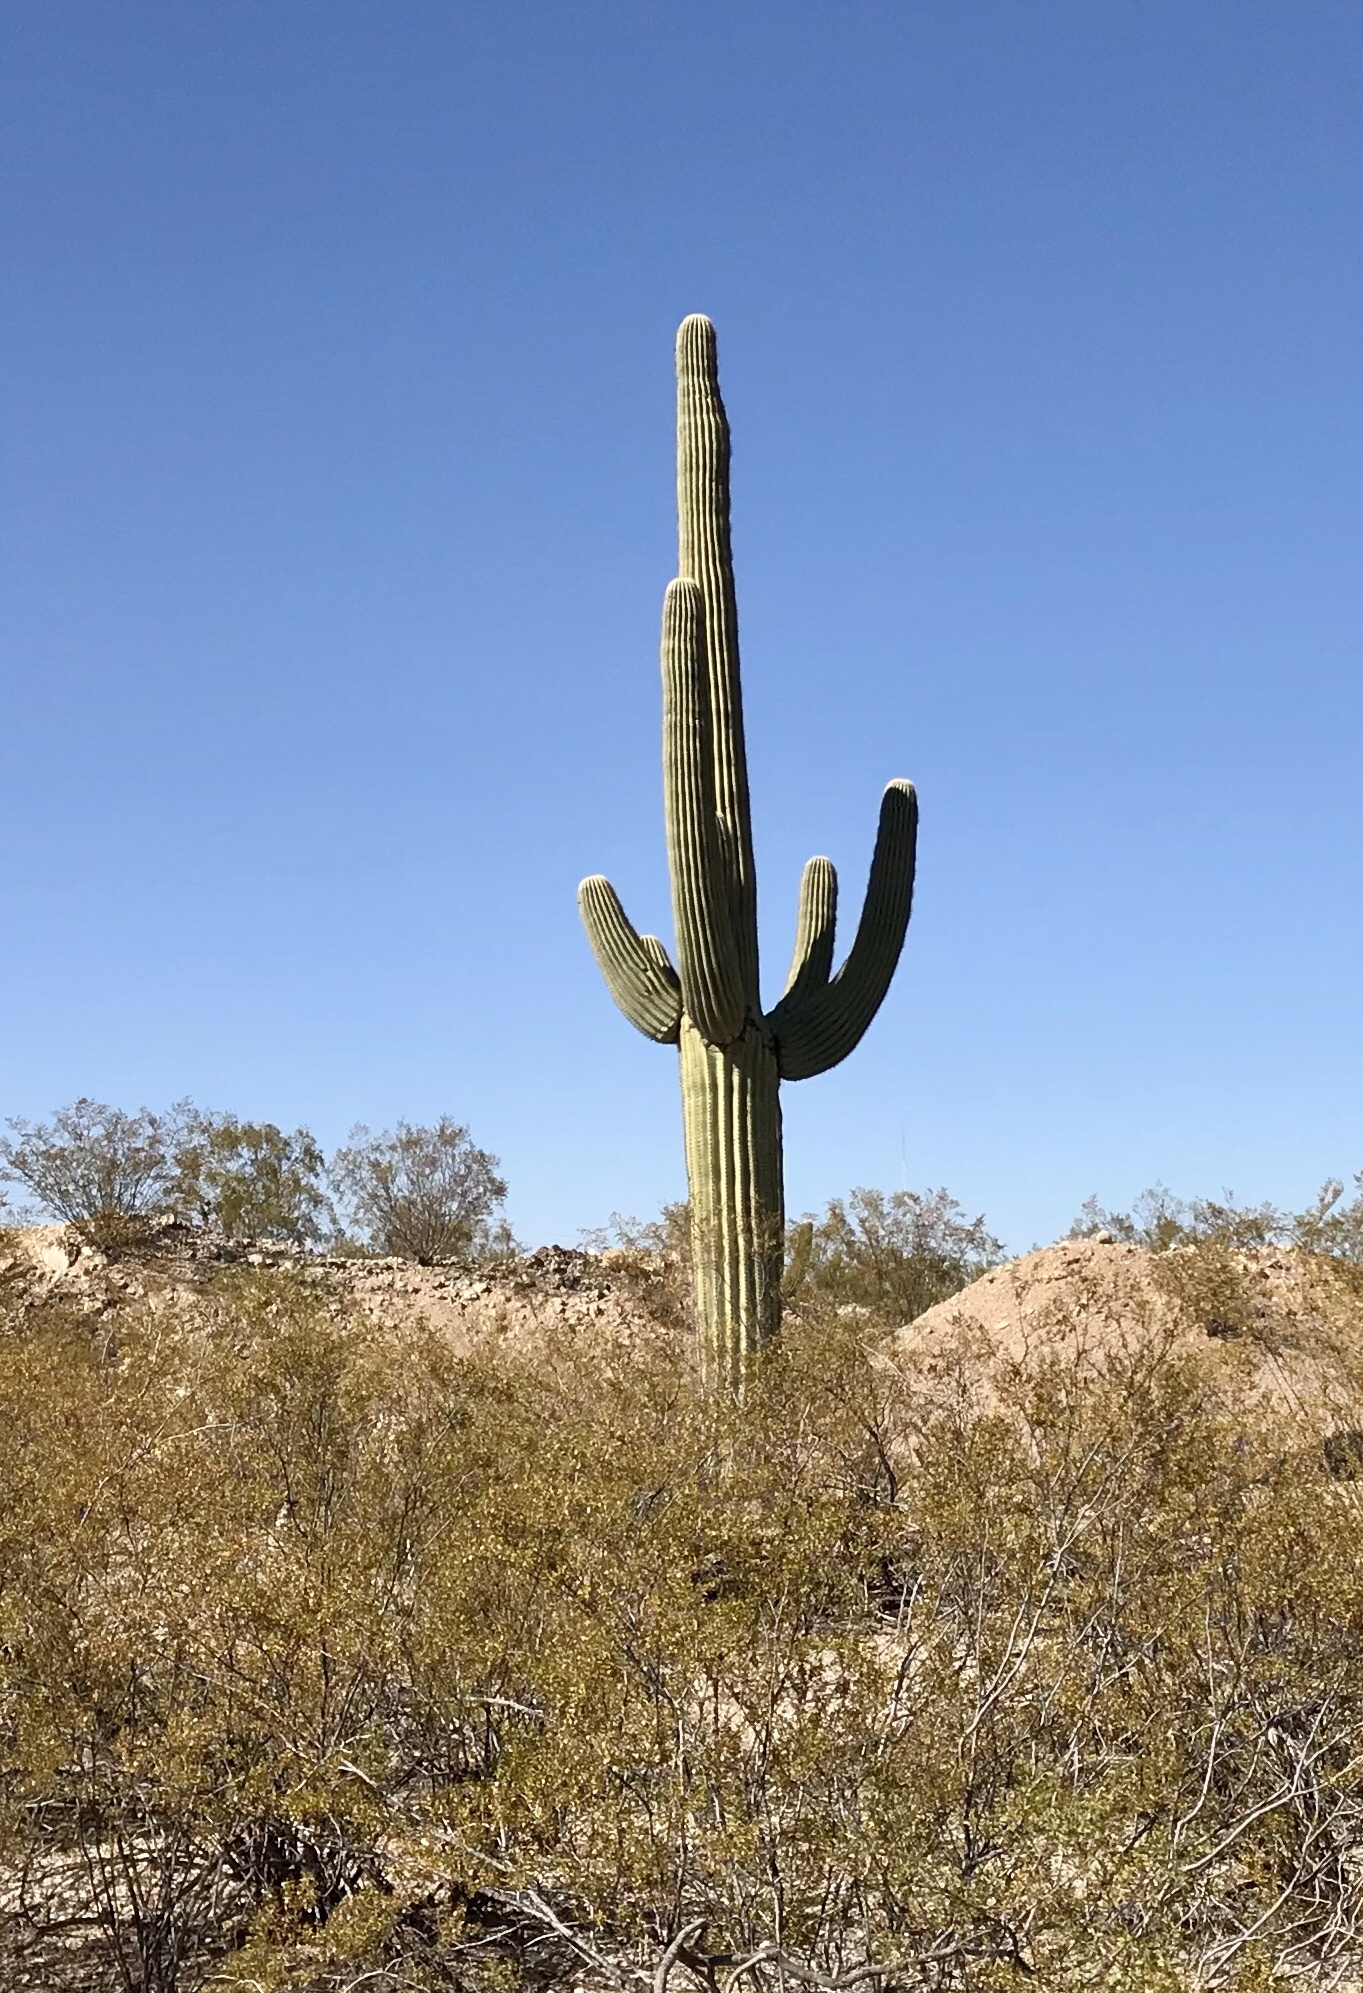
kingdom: Plantae
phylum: Tracheophyta
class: Magnoliopsida
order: Caryophyllales
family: Cactaceae
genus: Carnegiea
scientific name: Carnegiea gigantea
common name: Saguaro
